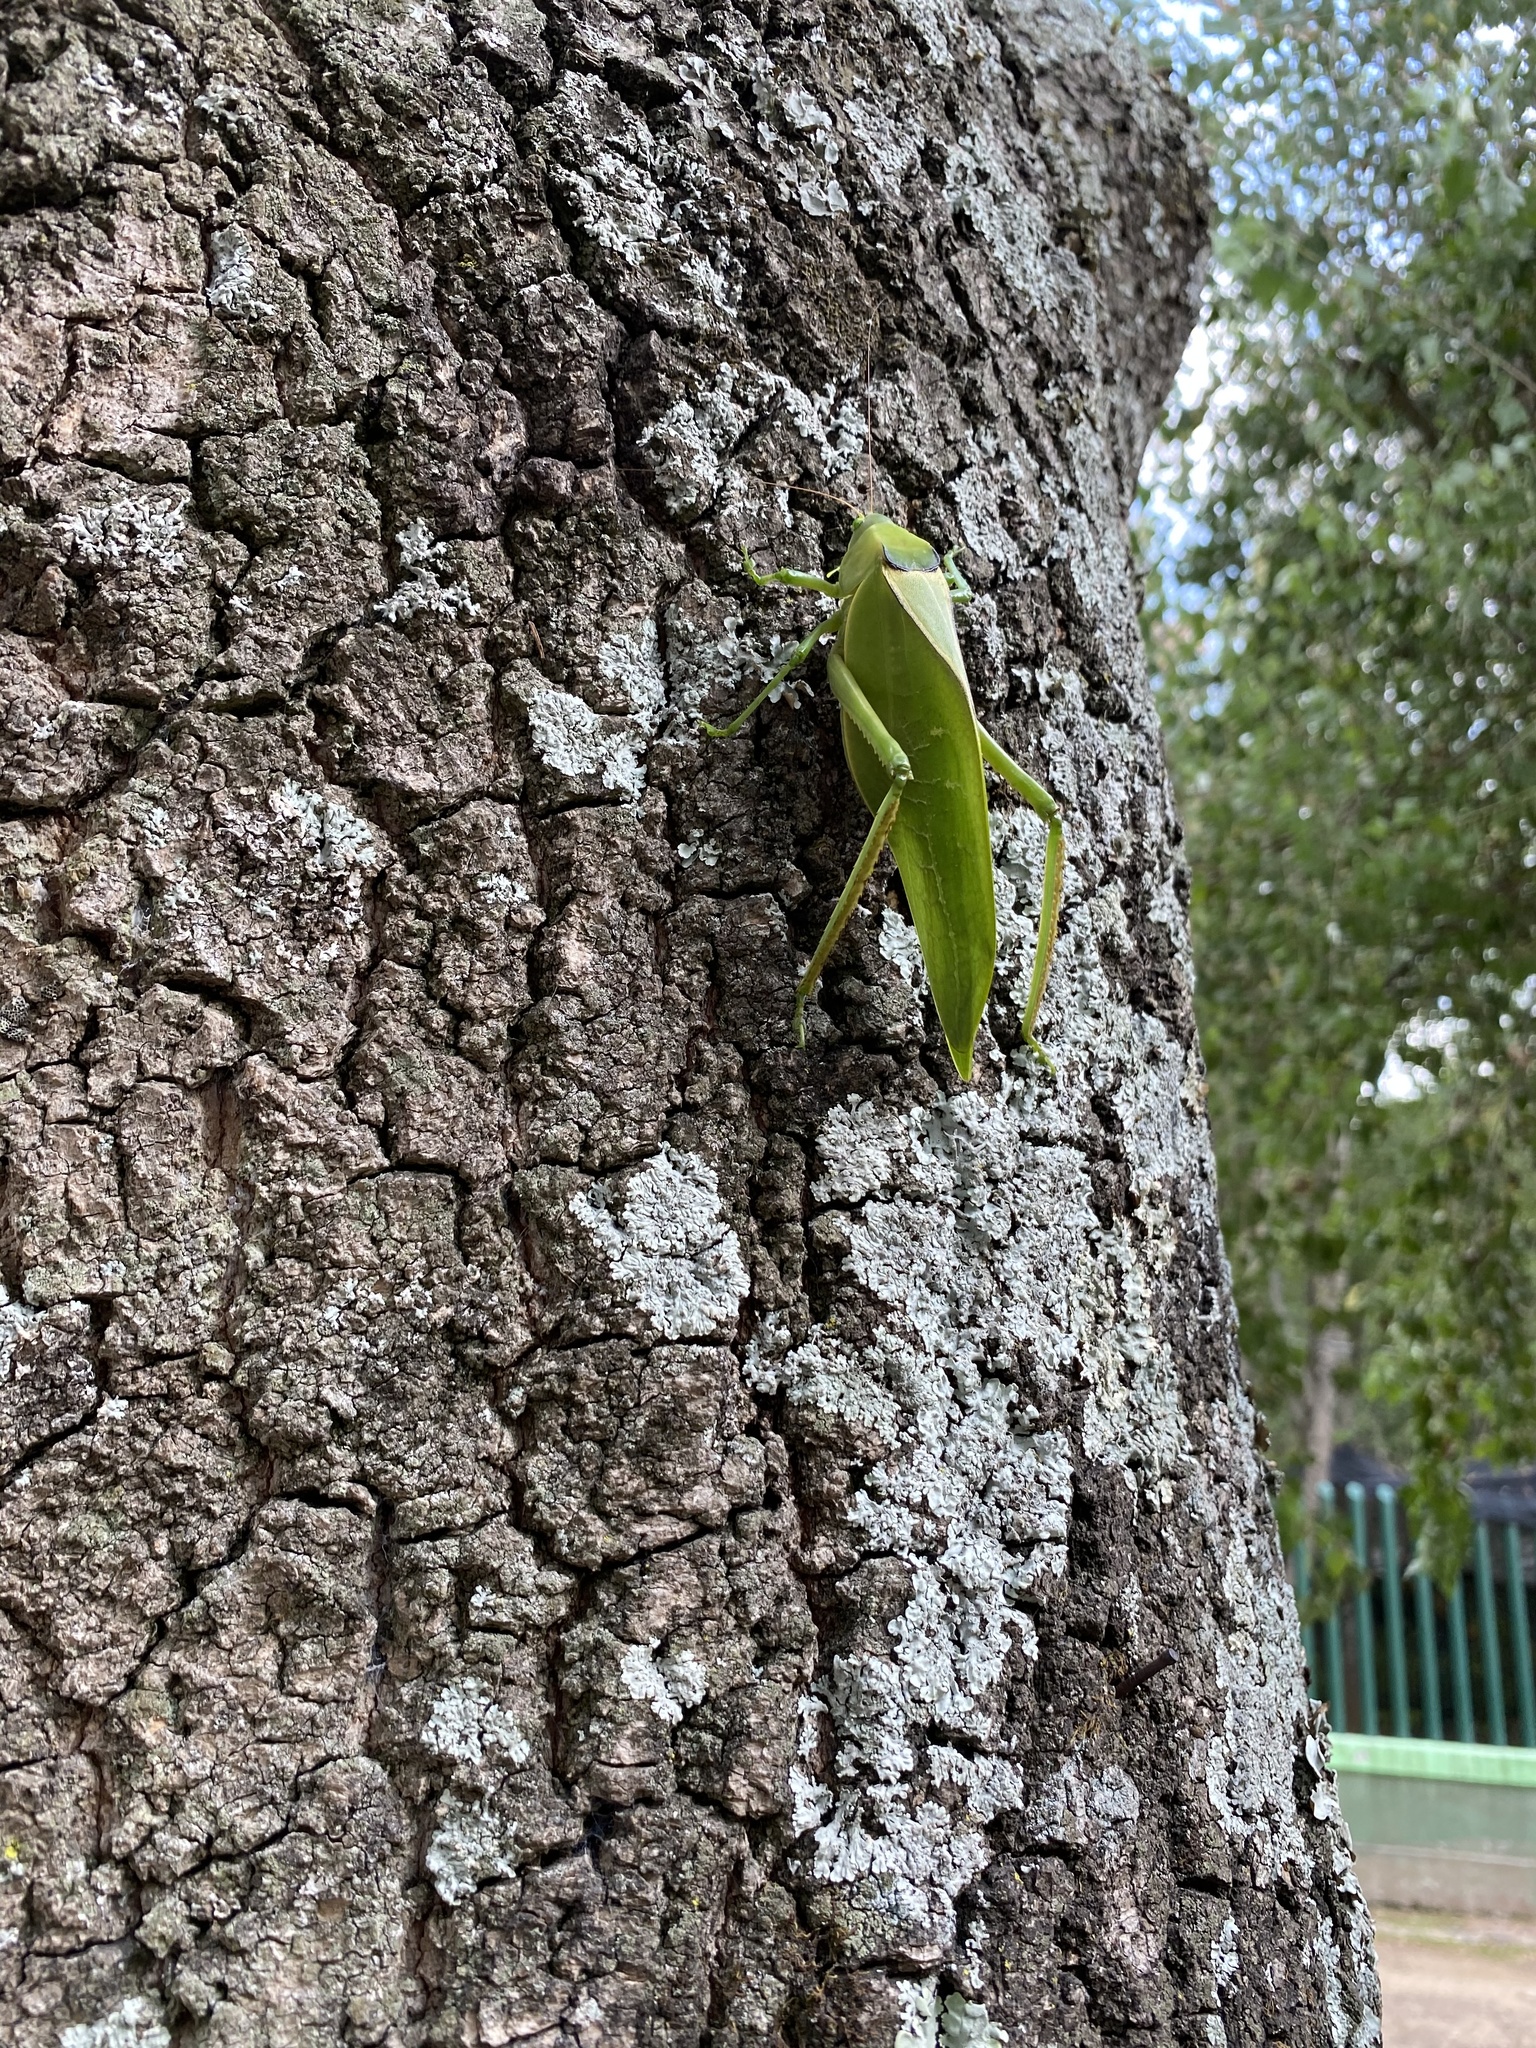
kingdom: Animalia
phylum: Arthropoda
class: Insecta
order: Orthoptera
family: Tettigoniidae
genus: Stilpnochlora
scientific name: Stilpnochlora azteca
